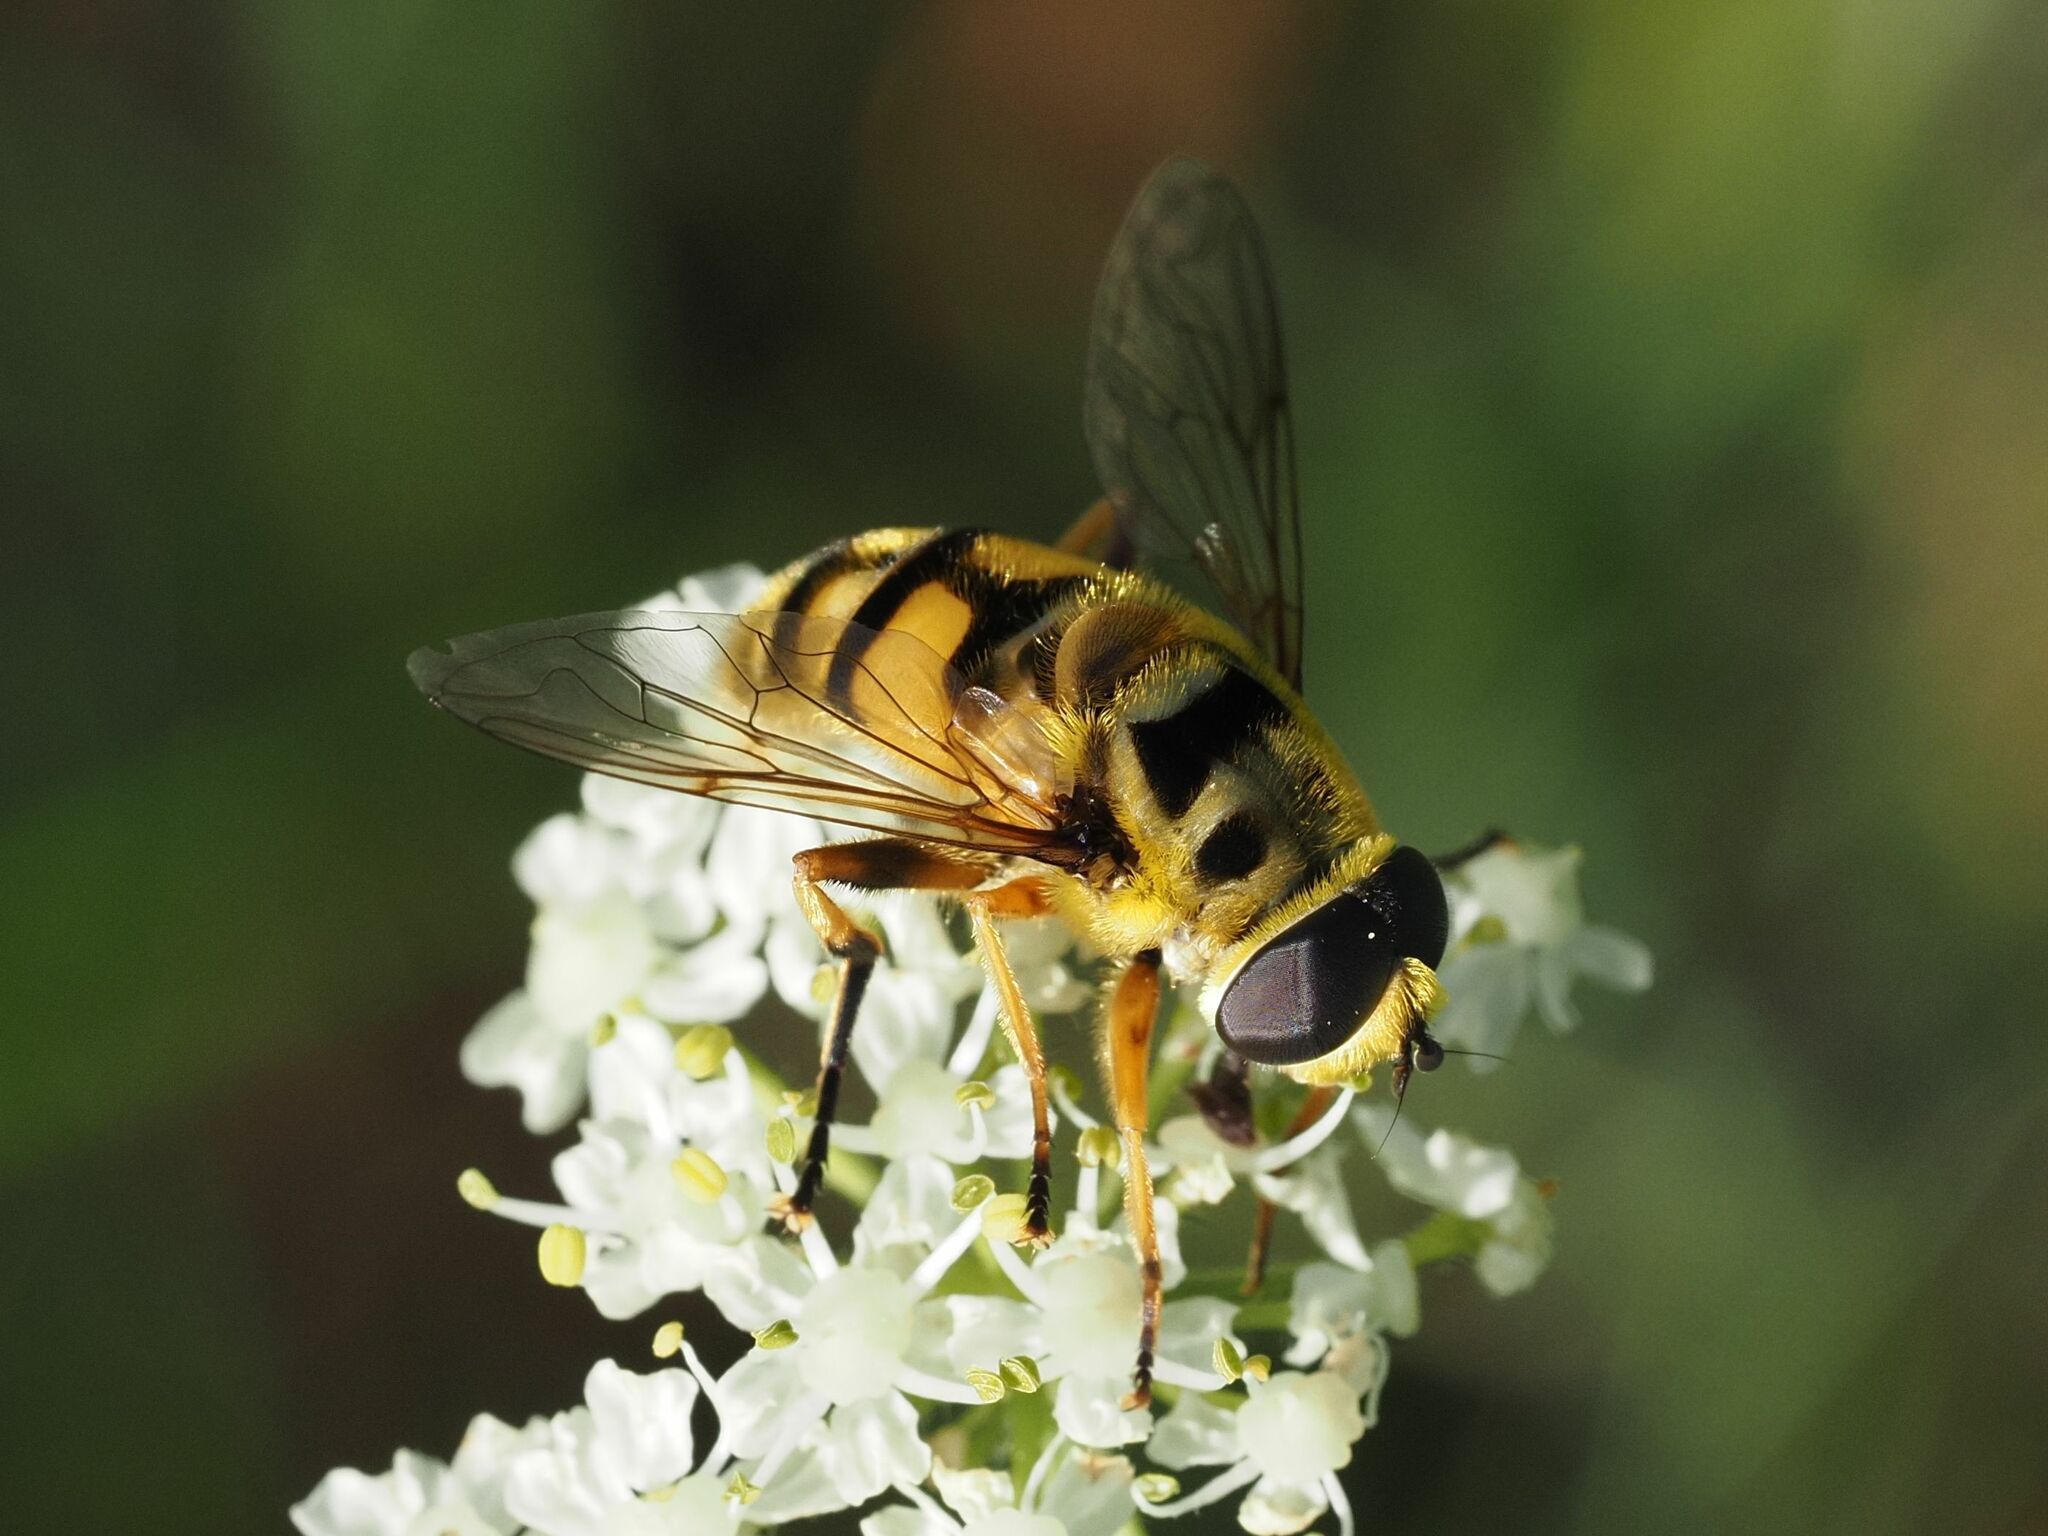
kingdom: Animalia
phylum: Arthropoda
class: Insecta
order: Diptera
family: Syrphidae
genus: Myathropa
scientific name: Myathropa florea
